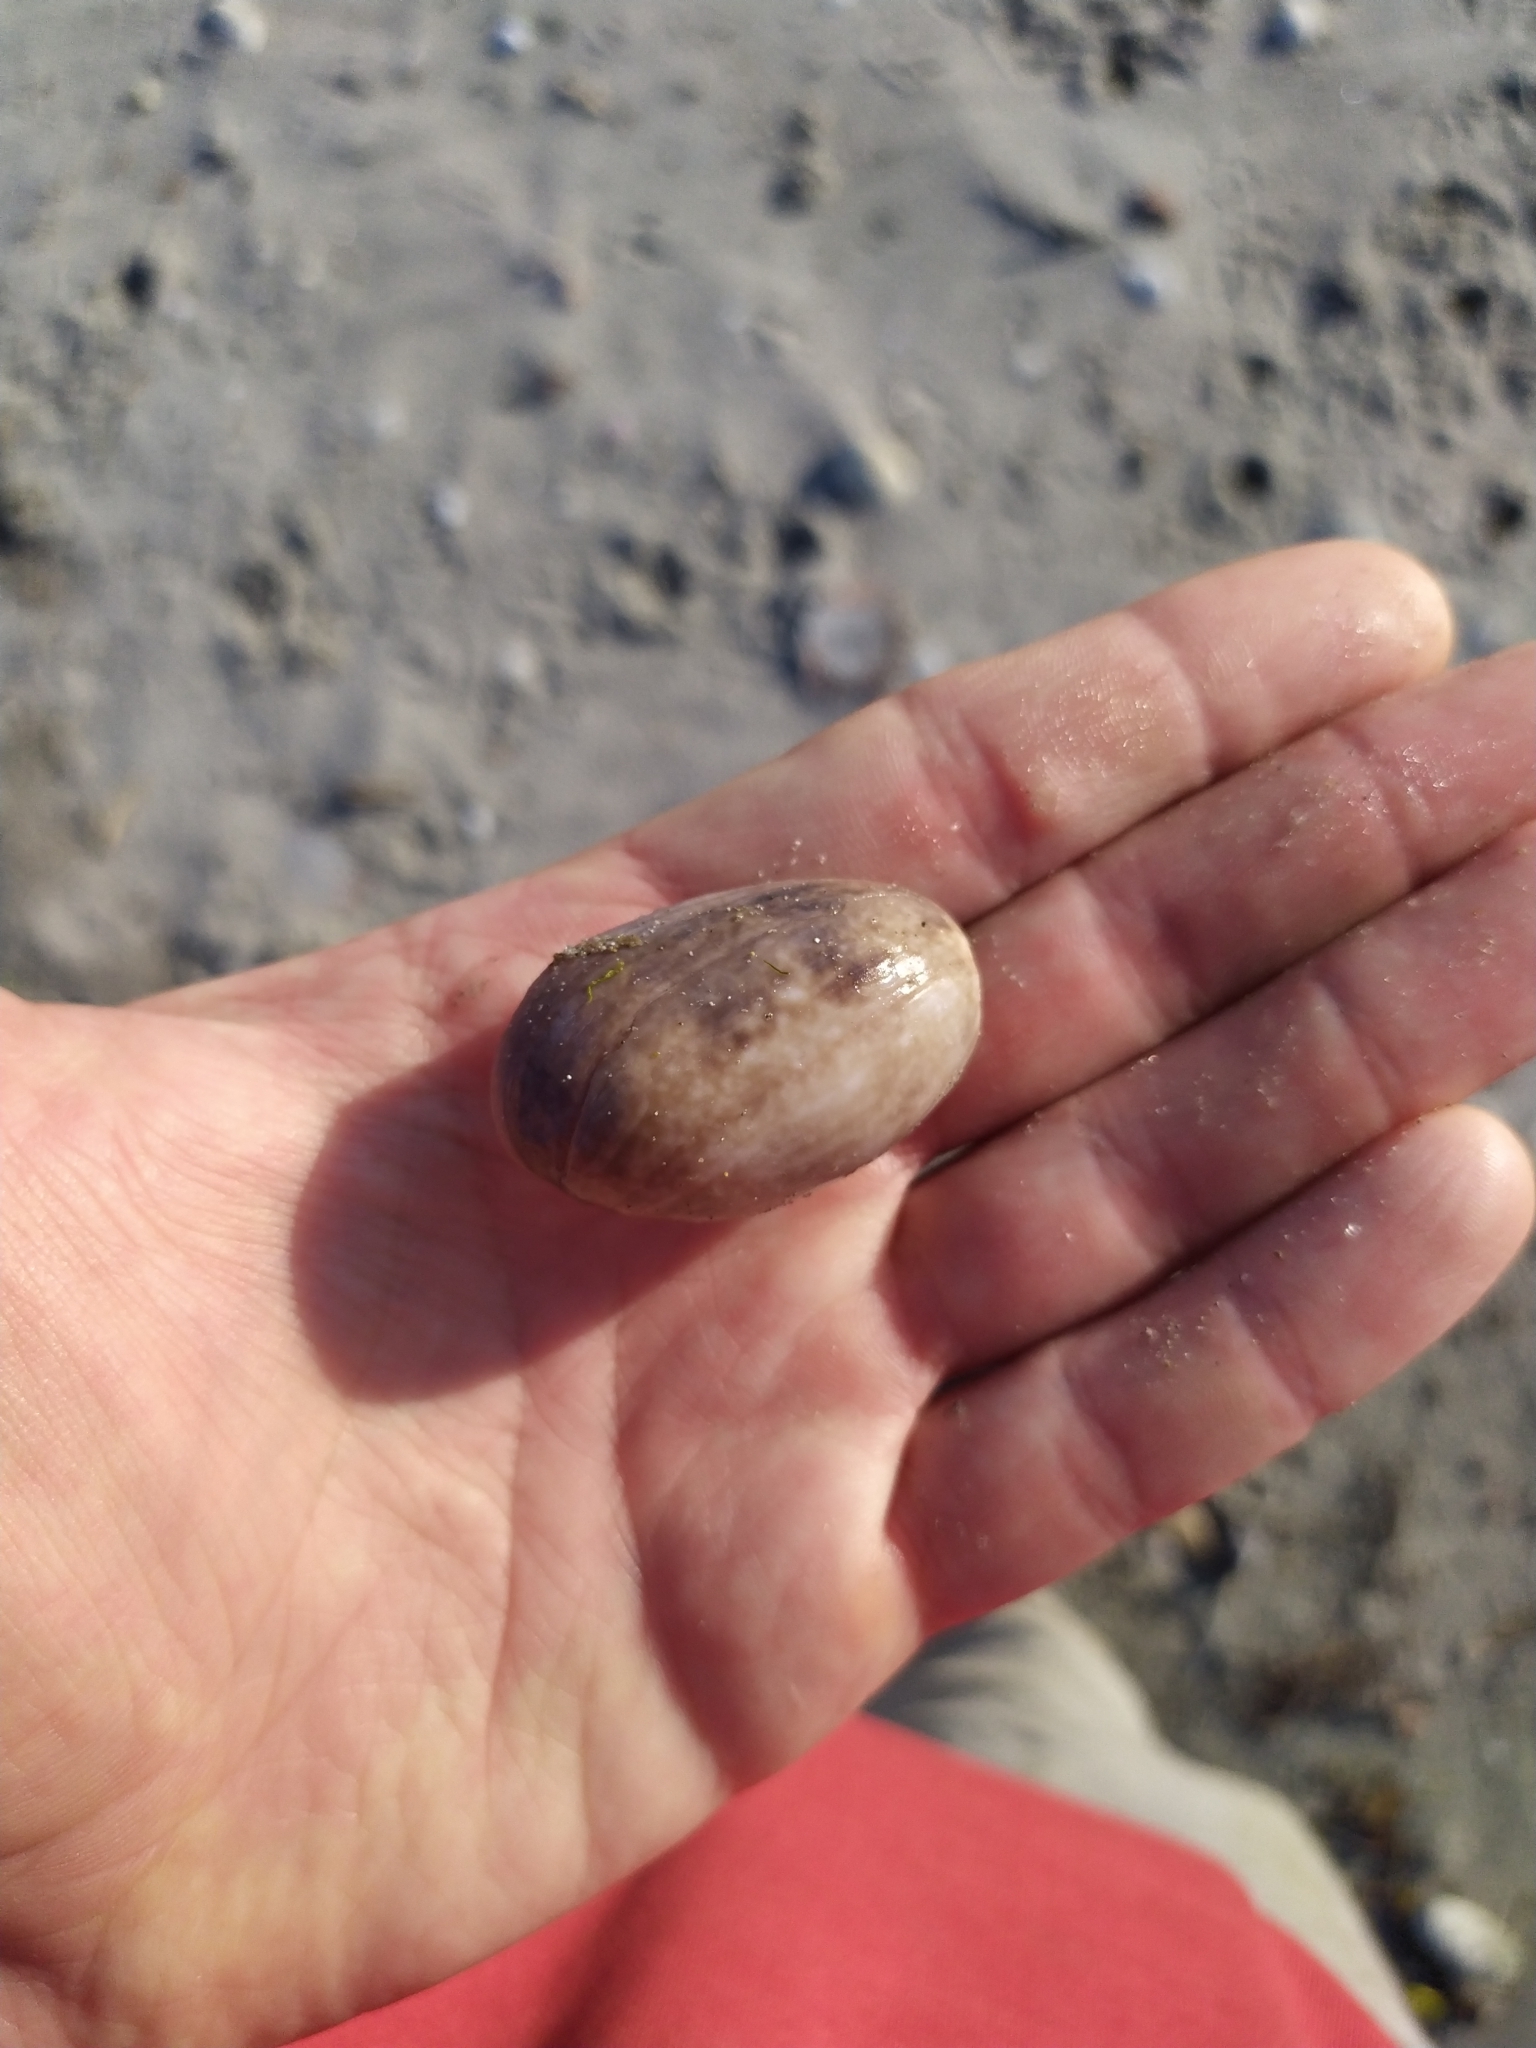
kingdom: Animalia
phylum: Mollusca
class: Gastropoda
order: Cephalaspidea
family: Bullidae
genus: Bulla
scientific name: Bulla quoyii
